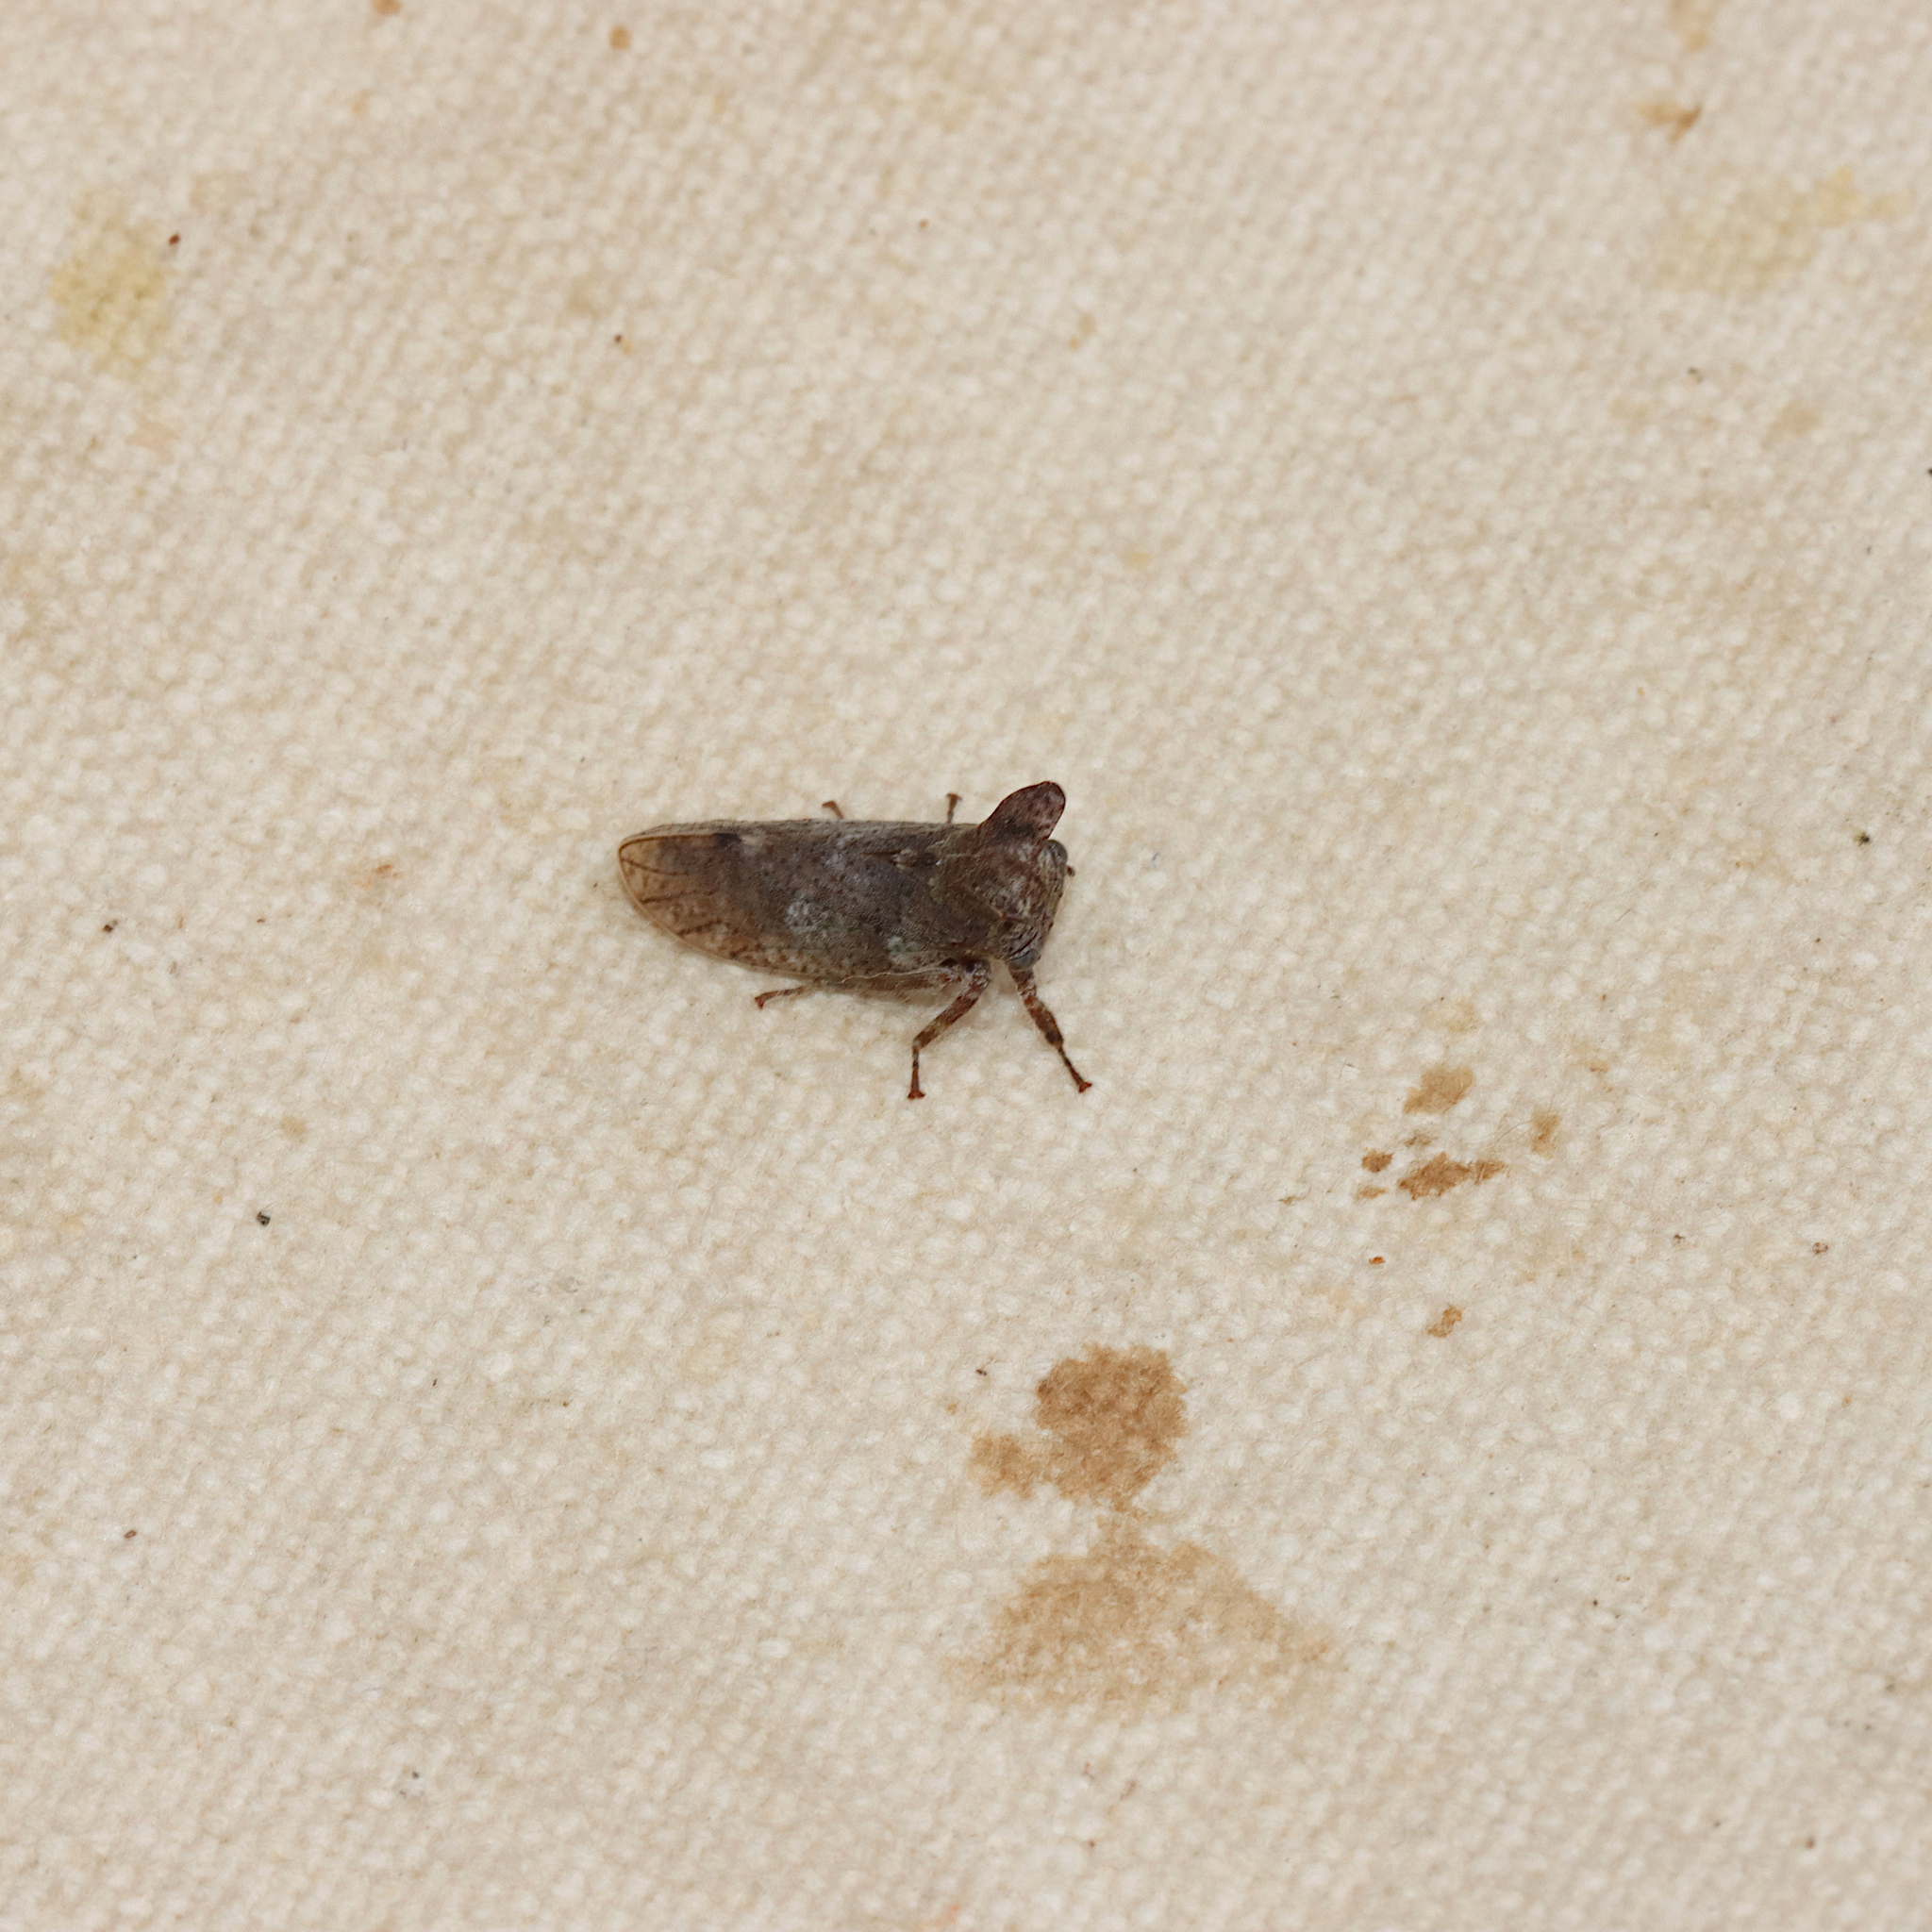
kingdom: Animalia
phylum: Arthropoda
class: Insecta
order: Hemiptera
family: Membracidae
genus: Microcentrus
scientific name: Microcentrus perdita
